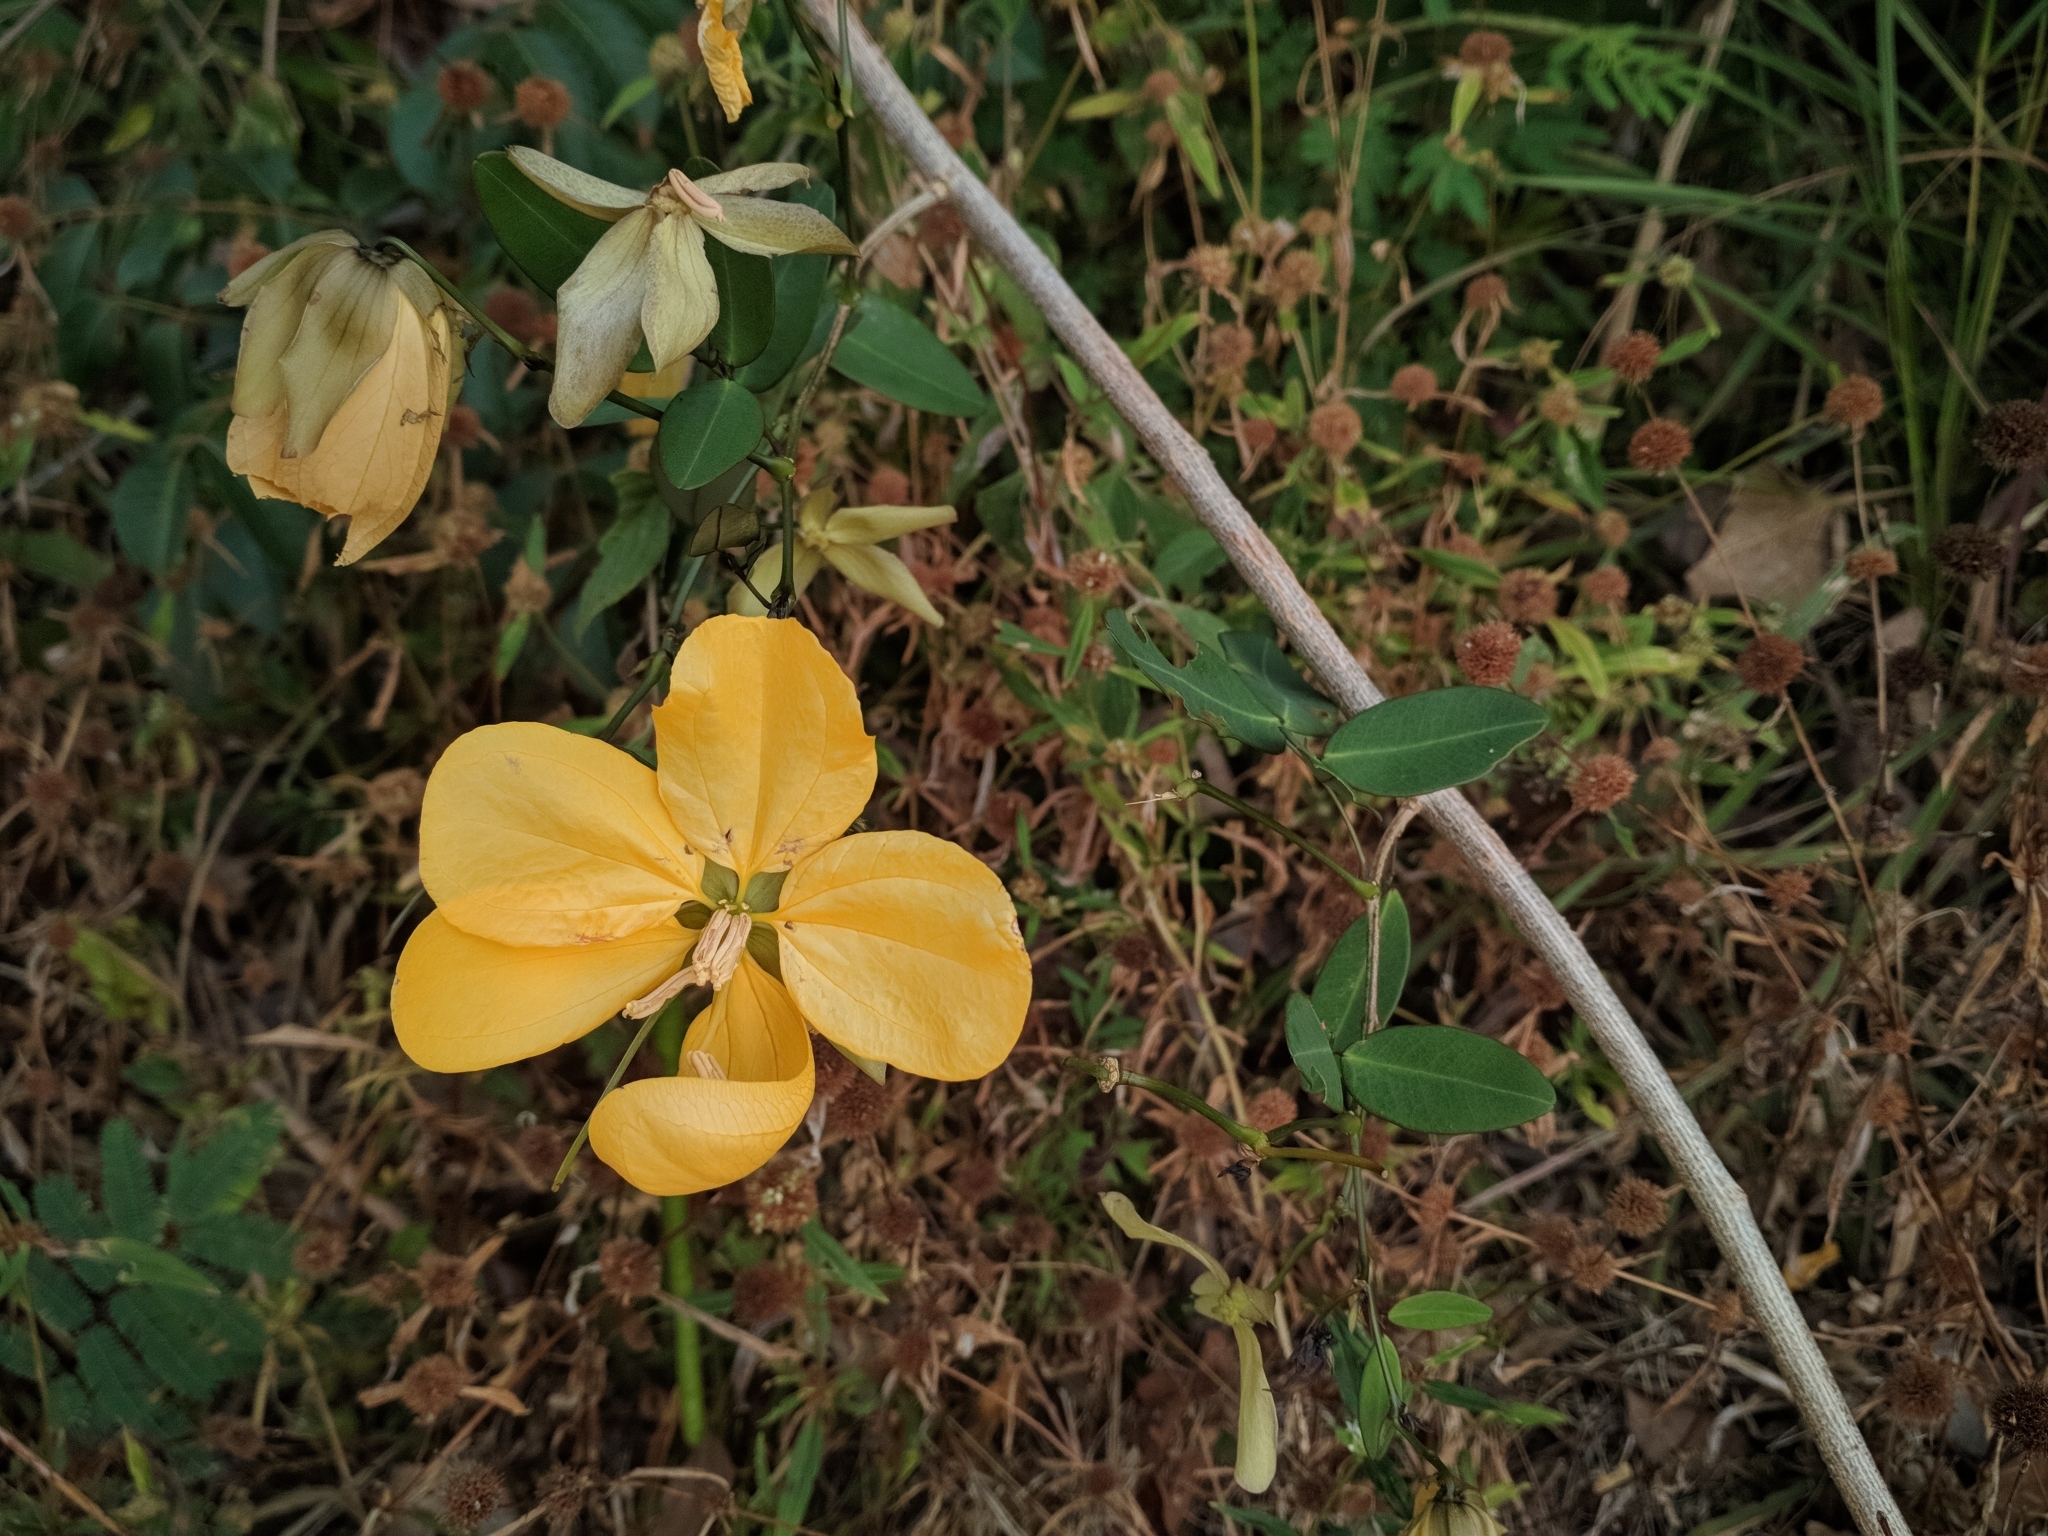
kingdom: Plantae
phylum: Tracheophyta
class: Magnoliopsida
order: Fabales
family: Fabaceae
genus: Senna
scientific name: Senna splendida
